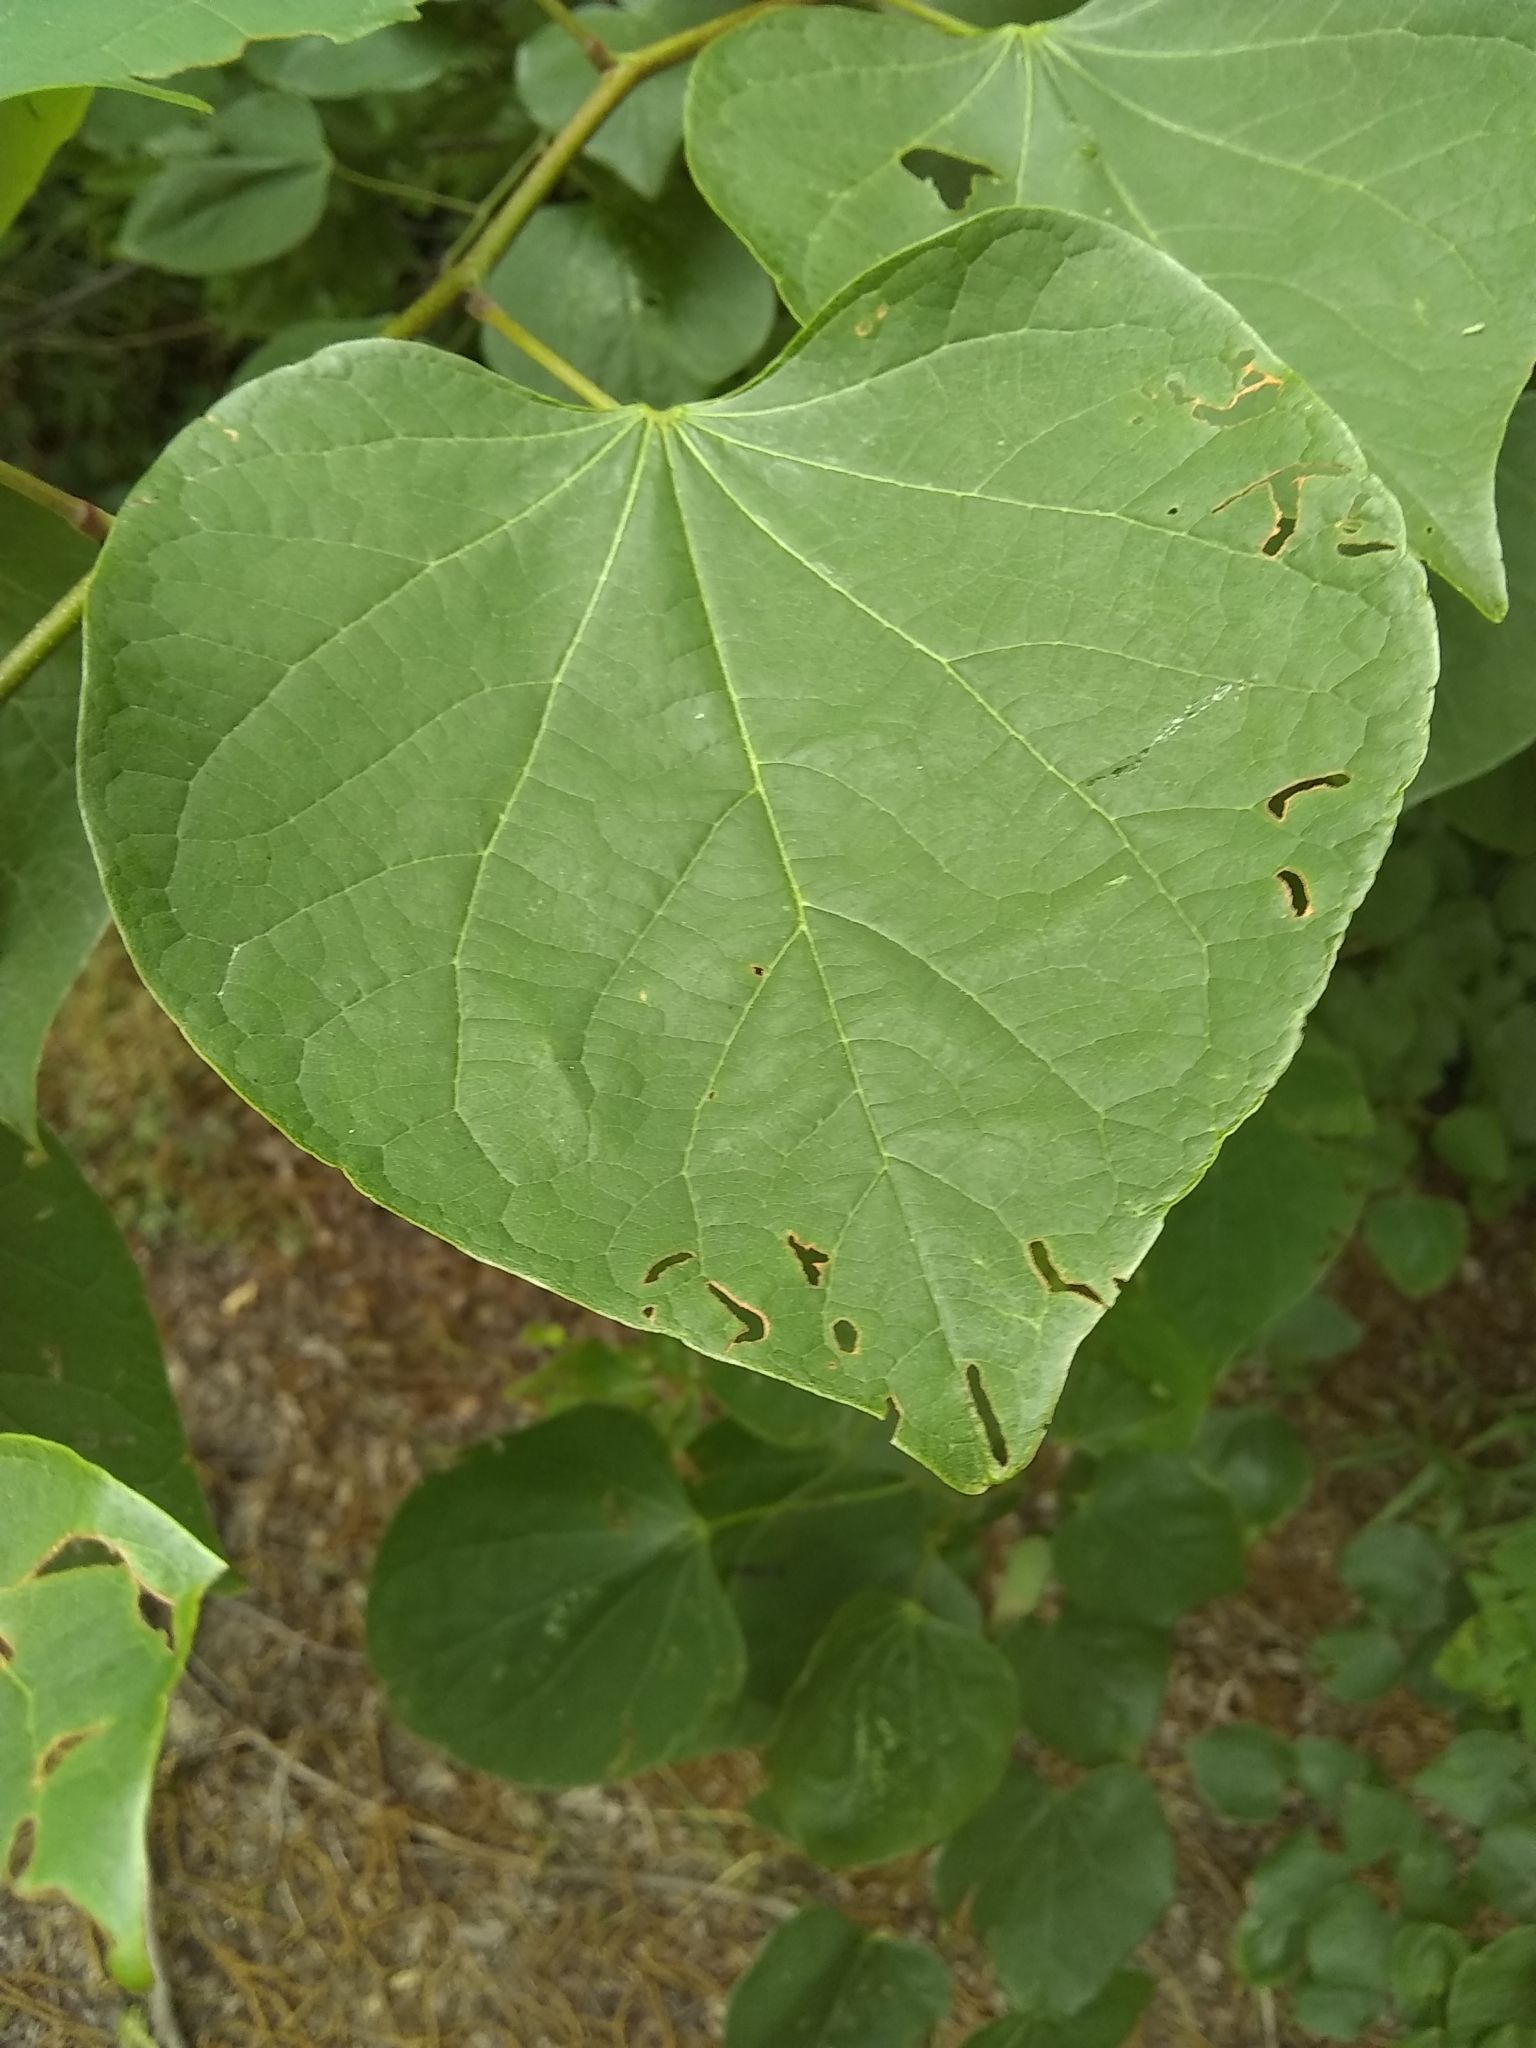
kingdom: Plantae
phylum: Tracheophyta
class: Magnoliopsida
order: Fabales
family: Fabaceae
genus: Cercis
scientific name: Cercis canadensis
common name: Eastern redbud
